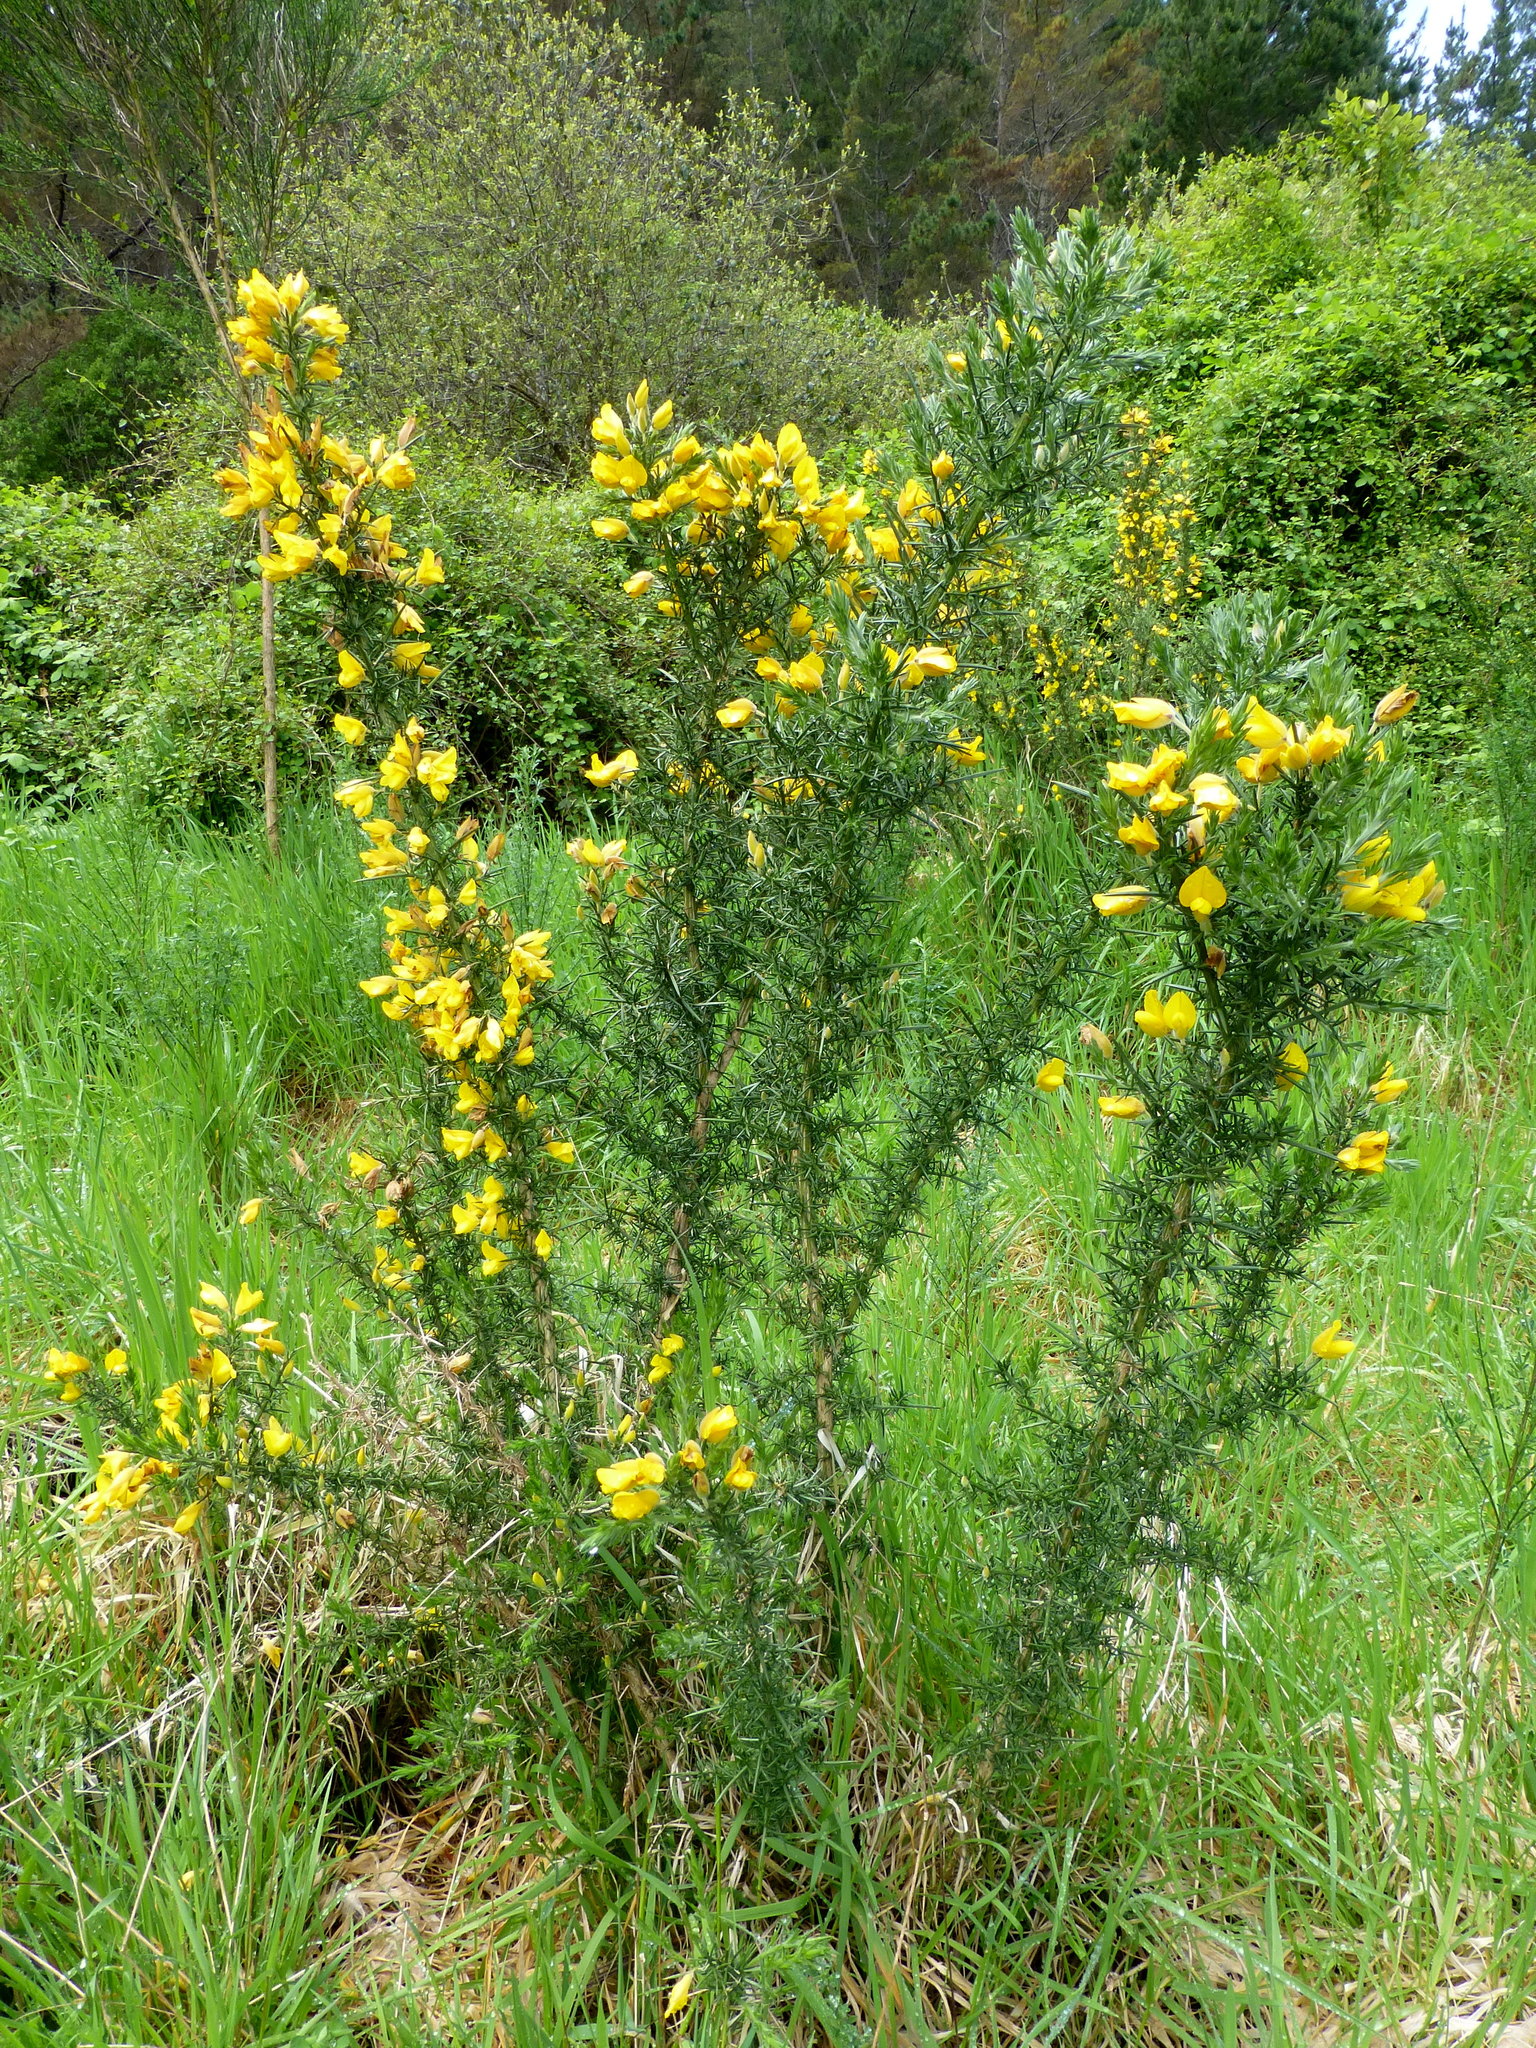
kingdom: Plantae
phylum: Tracheophyta
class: Magnoliopsida
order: Fabales
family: Fabaceae
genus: Ulex
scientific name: Ulex europaeus
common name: Common gorse
